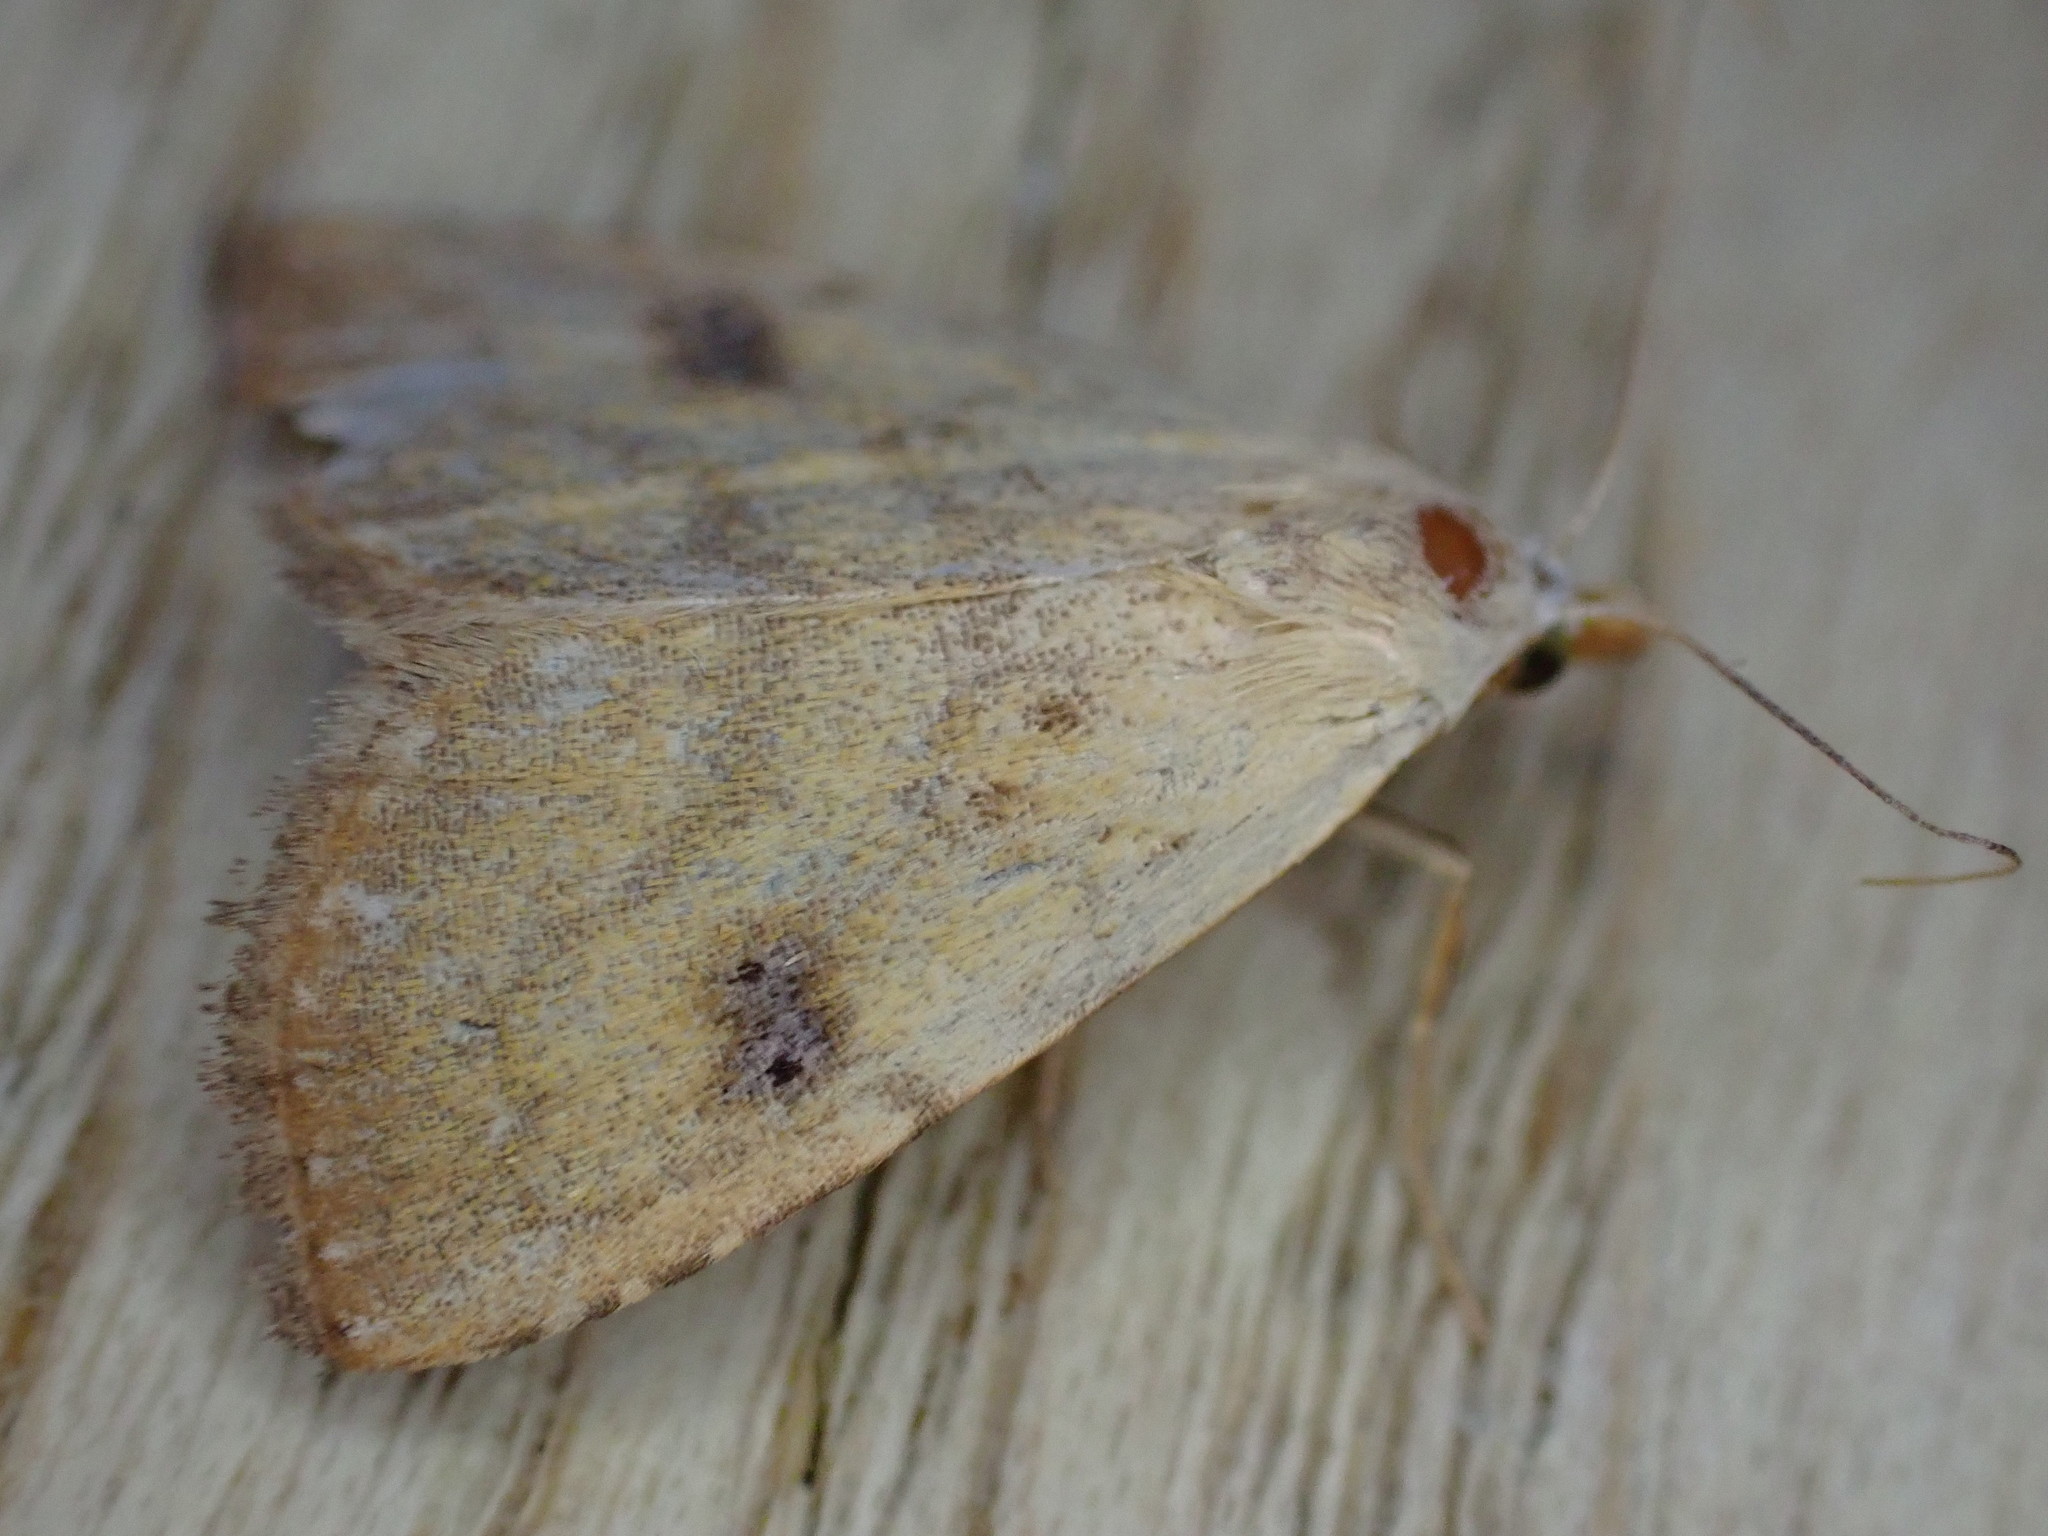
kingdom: Animalia
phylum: Arthropoda
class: Insecta
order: Lepidoptera
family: Erebidae
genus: Rivula
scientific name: Rivula sericealis
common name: Straw dot
